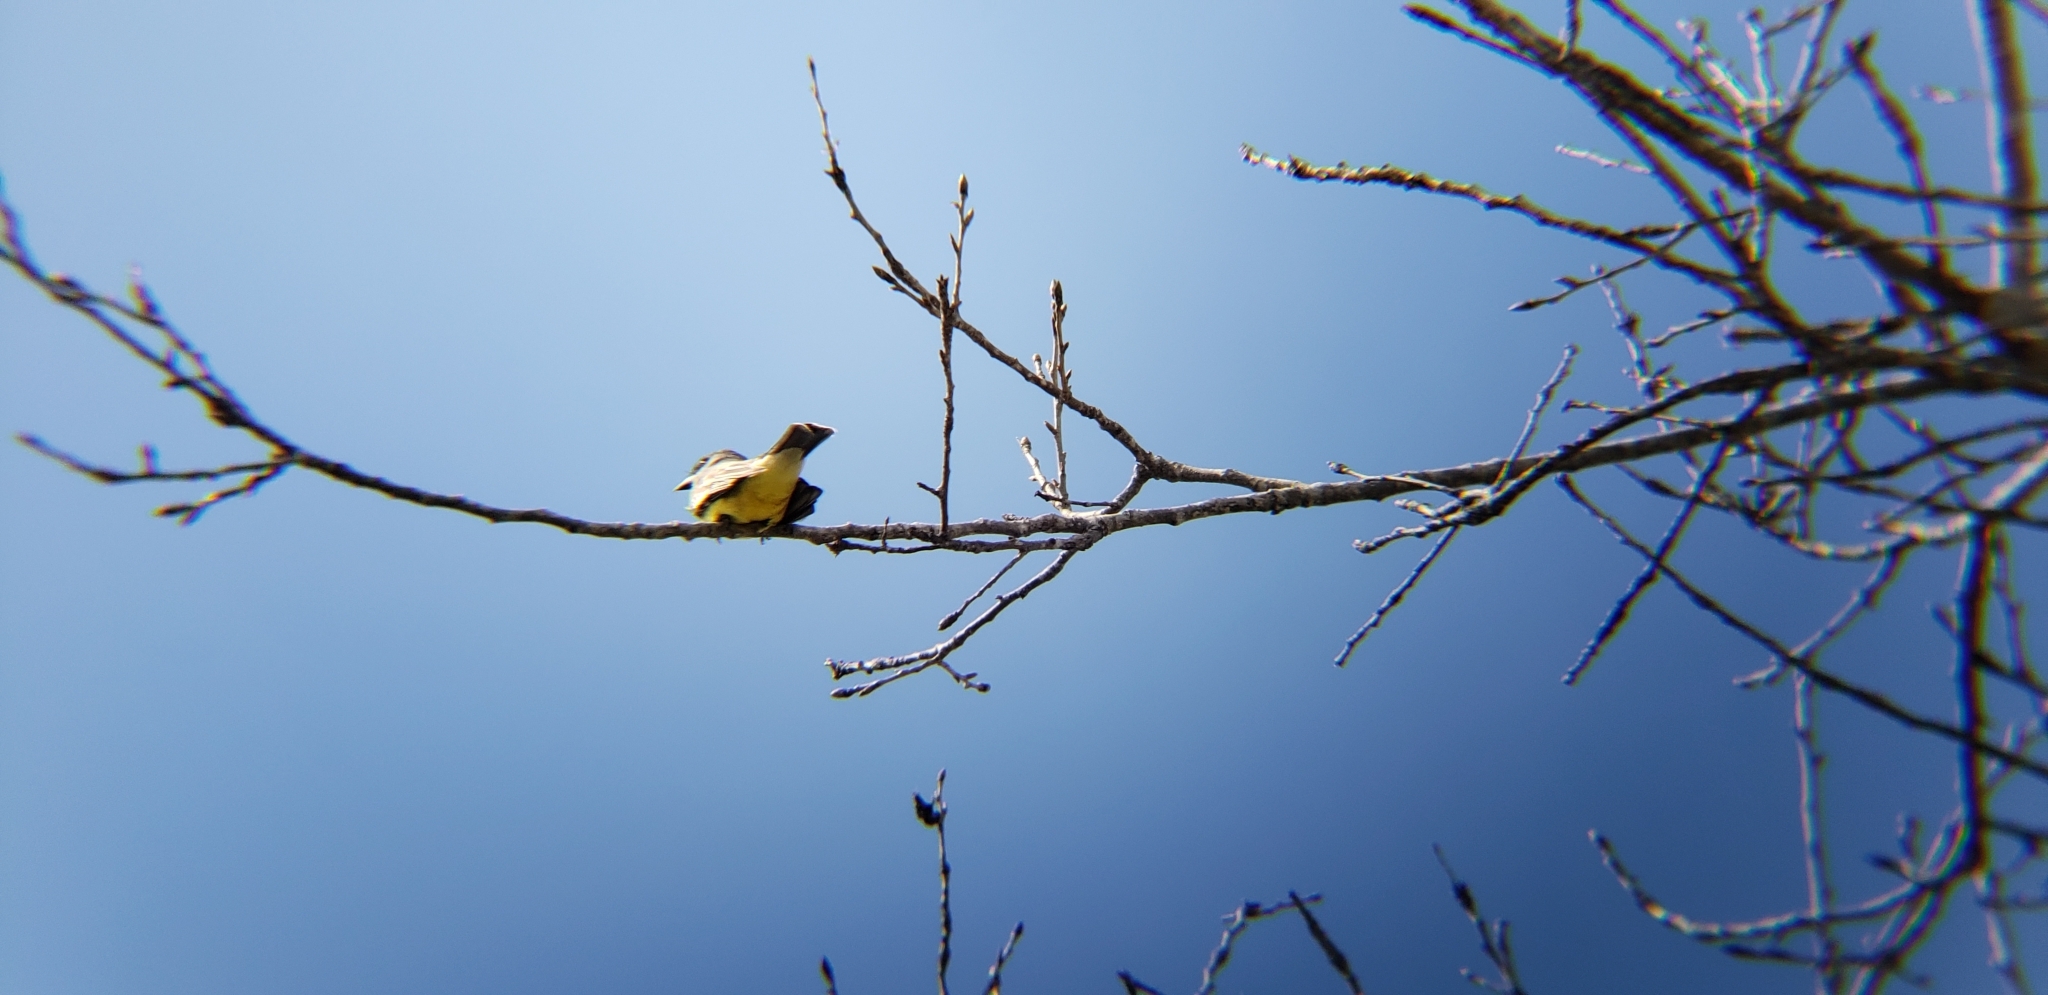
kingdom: Animalia
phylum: Chordata
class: Aves
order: Passeriformes
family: Tyrannidae
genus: Tyrannus
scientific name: Tyrannus vociferans
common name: Cassin's kingbird
